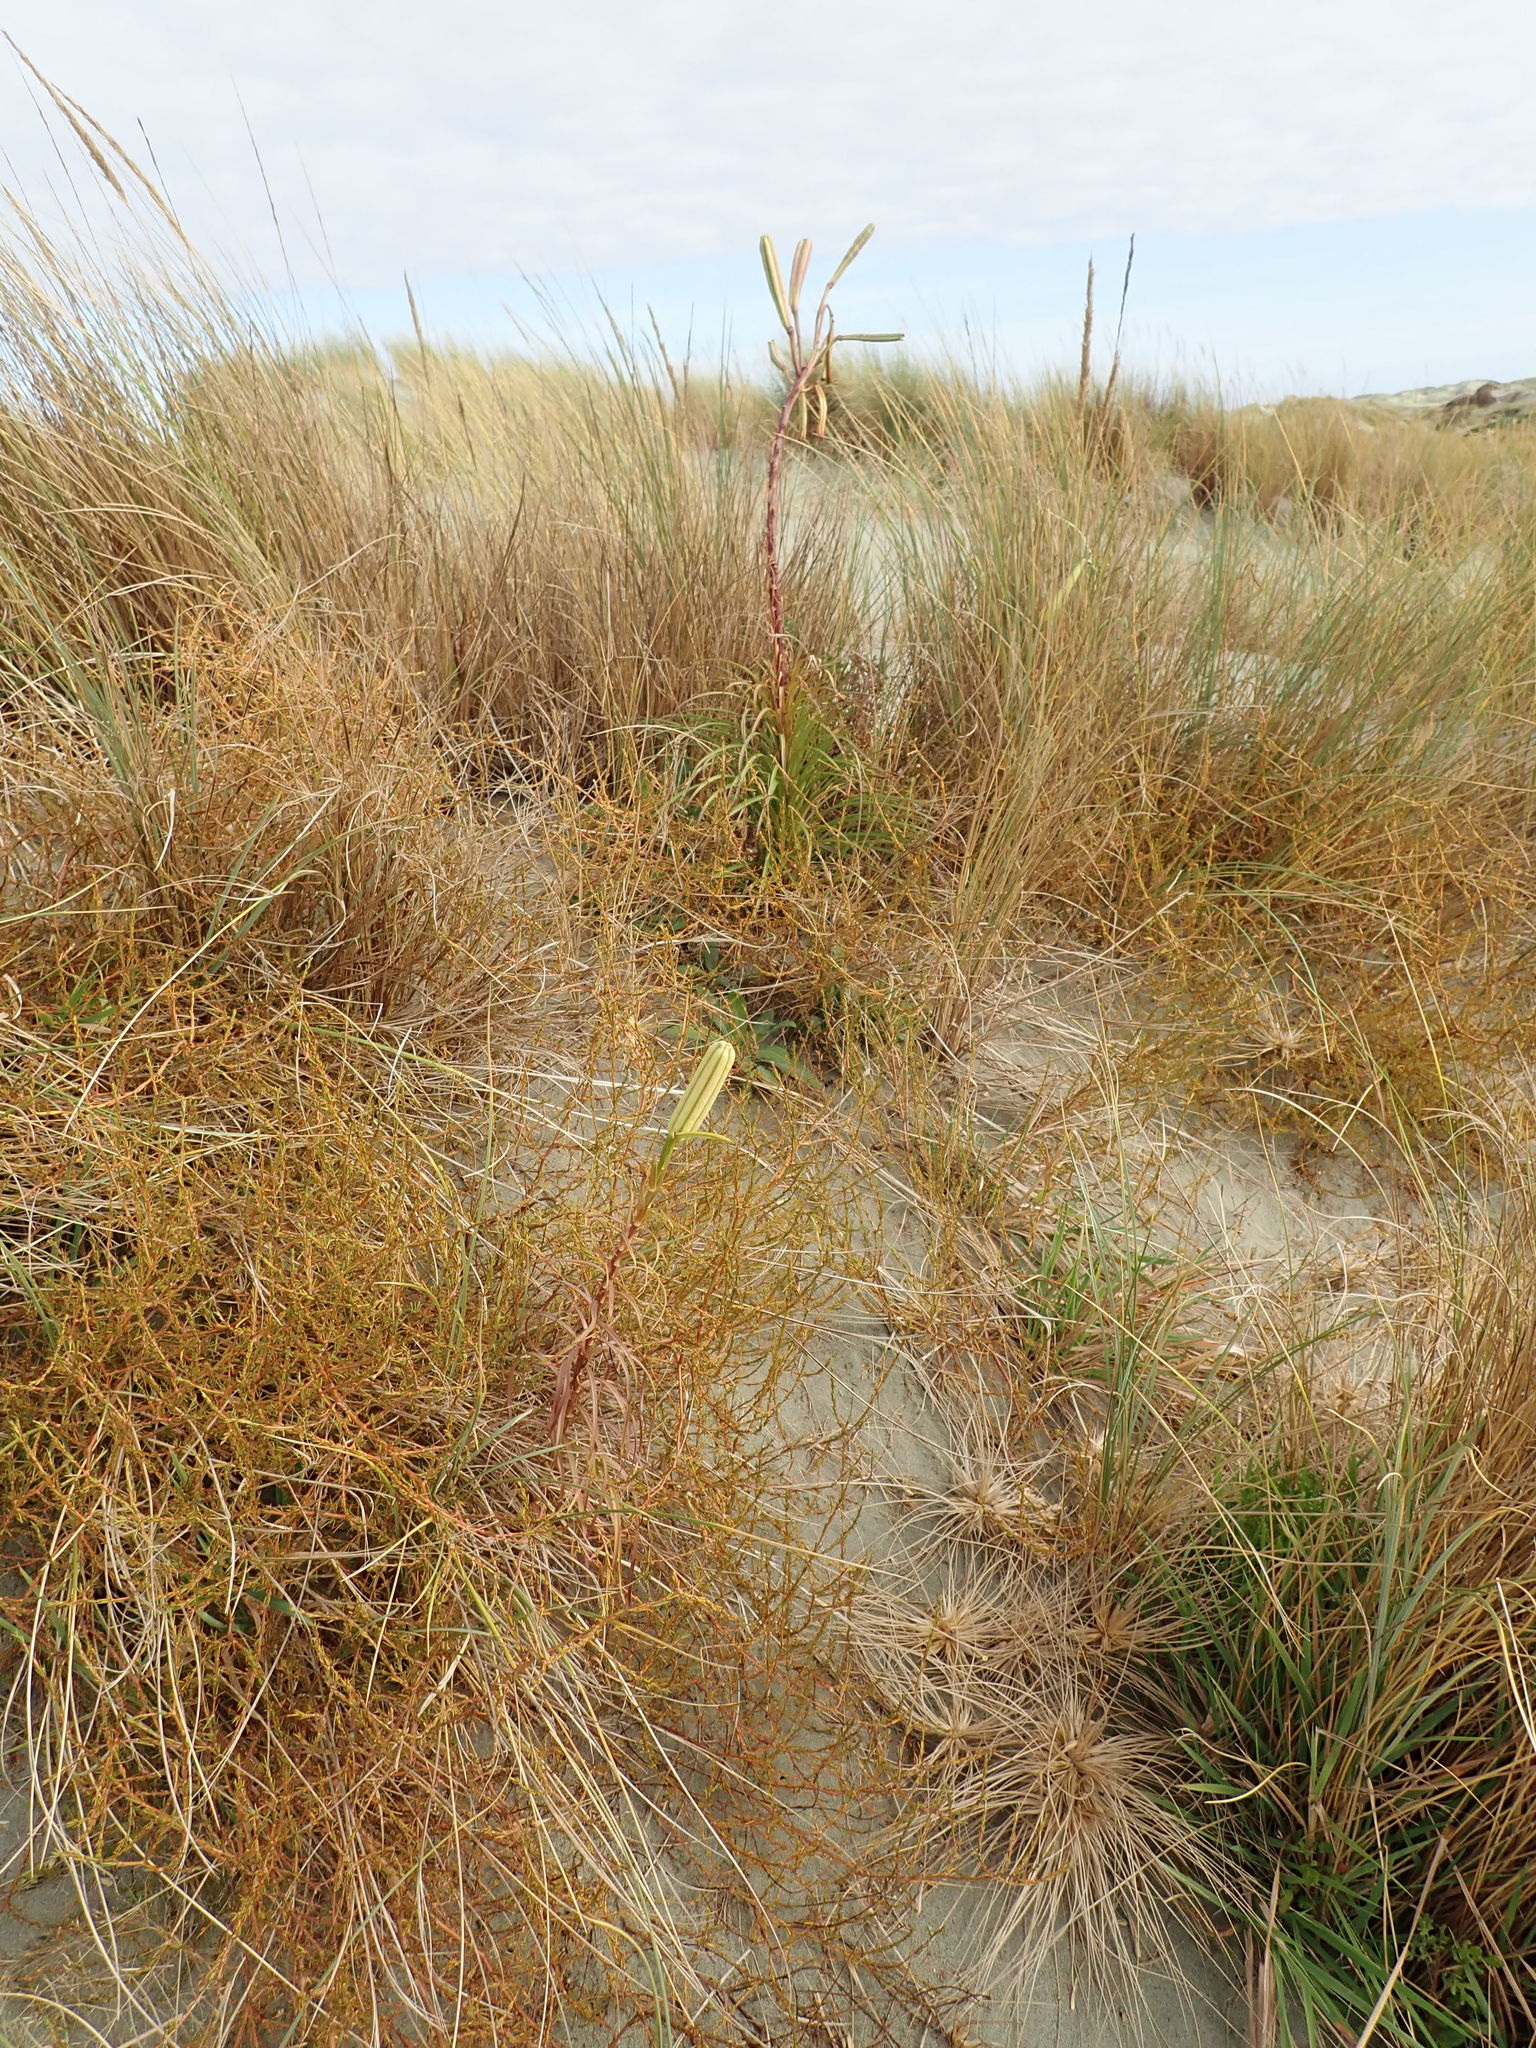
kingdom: Plantae
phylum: Tracheophyta
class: Liliopsida
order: Liliales
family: Liliaceae
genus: Lilium
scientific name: Lilium formosanum
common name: Formosa lily
